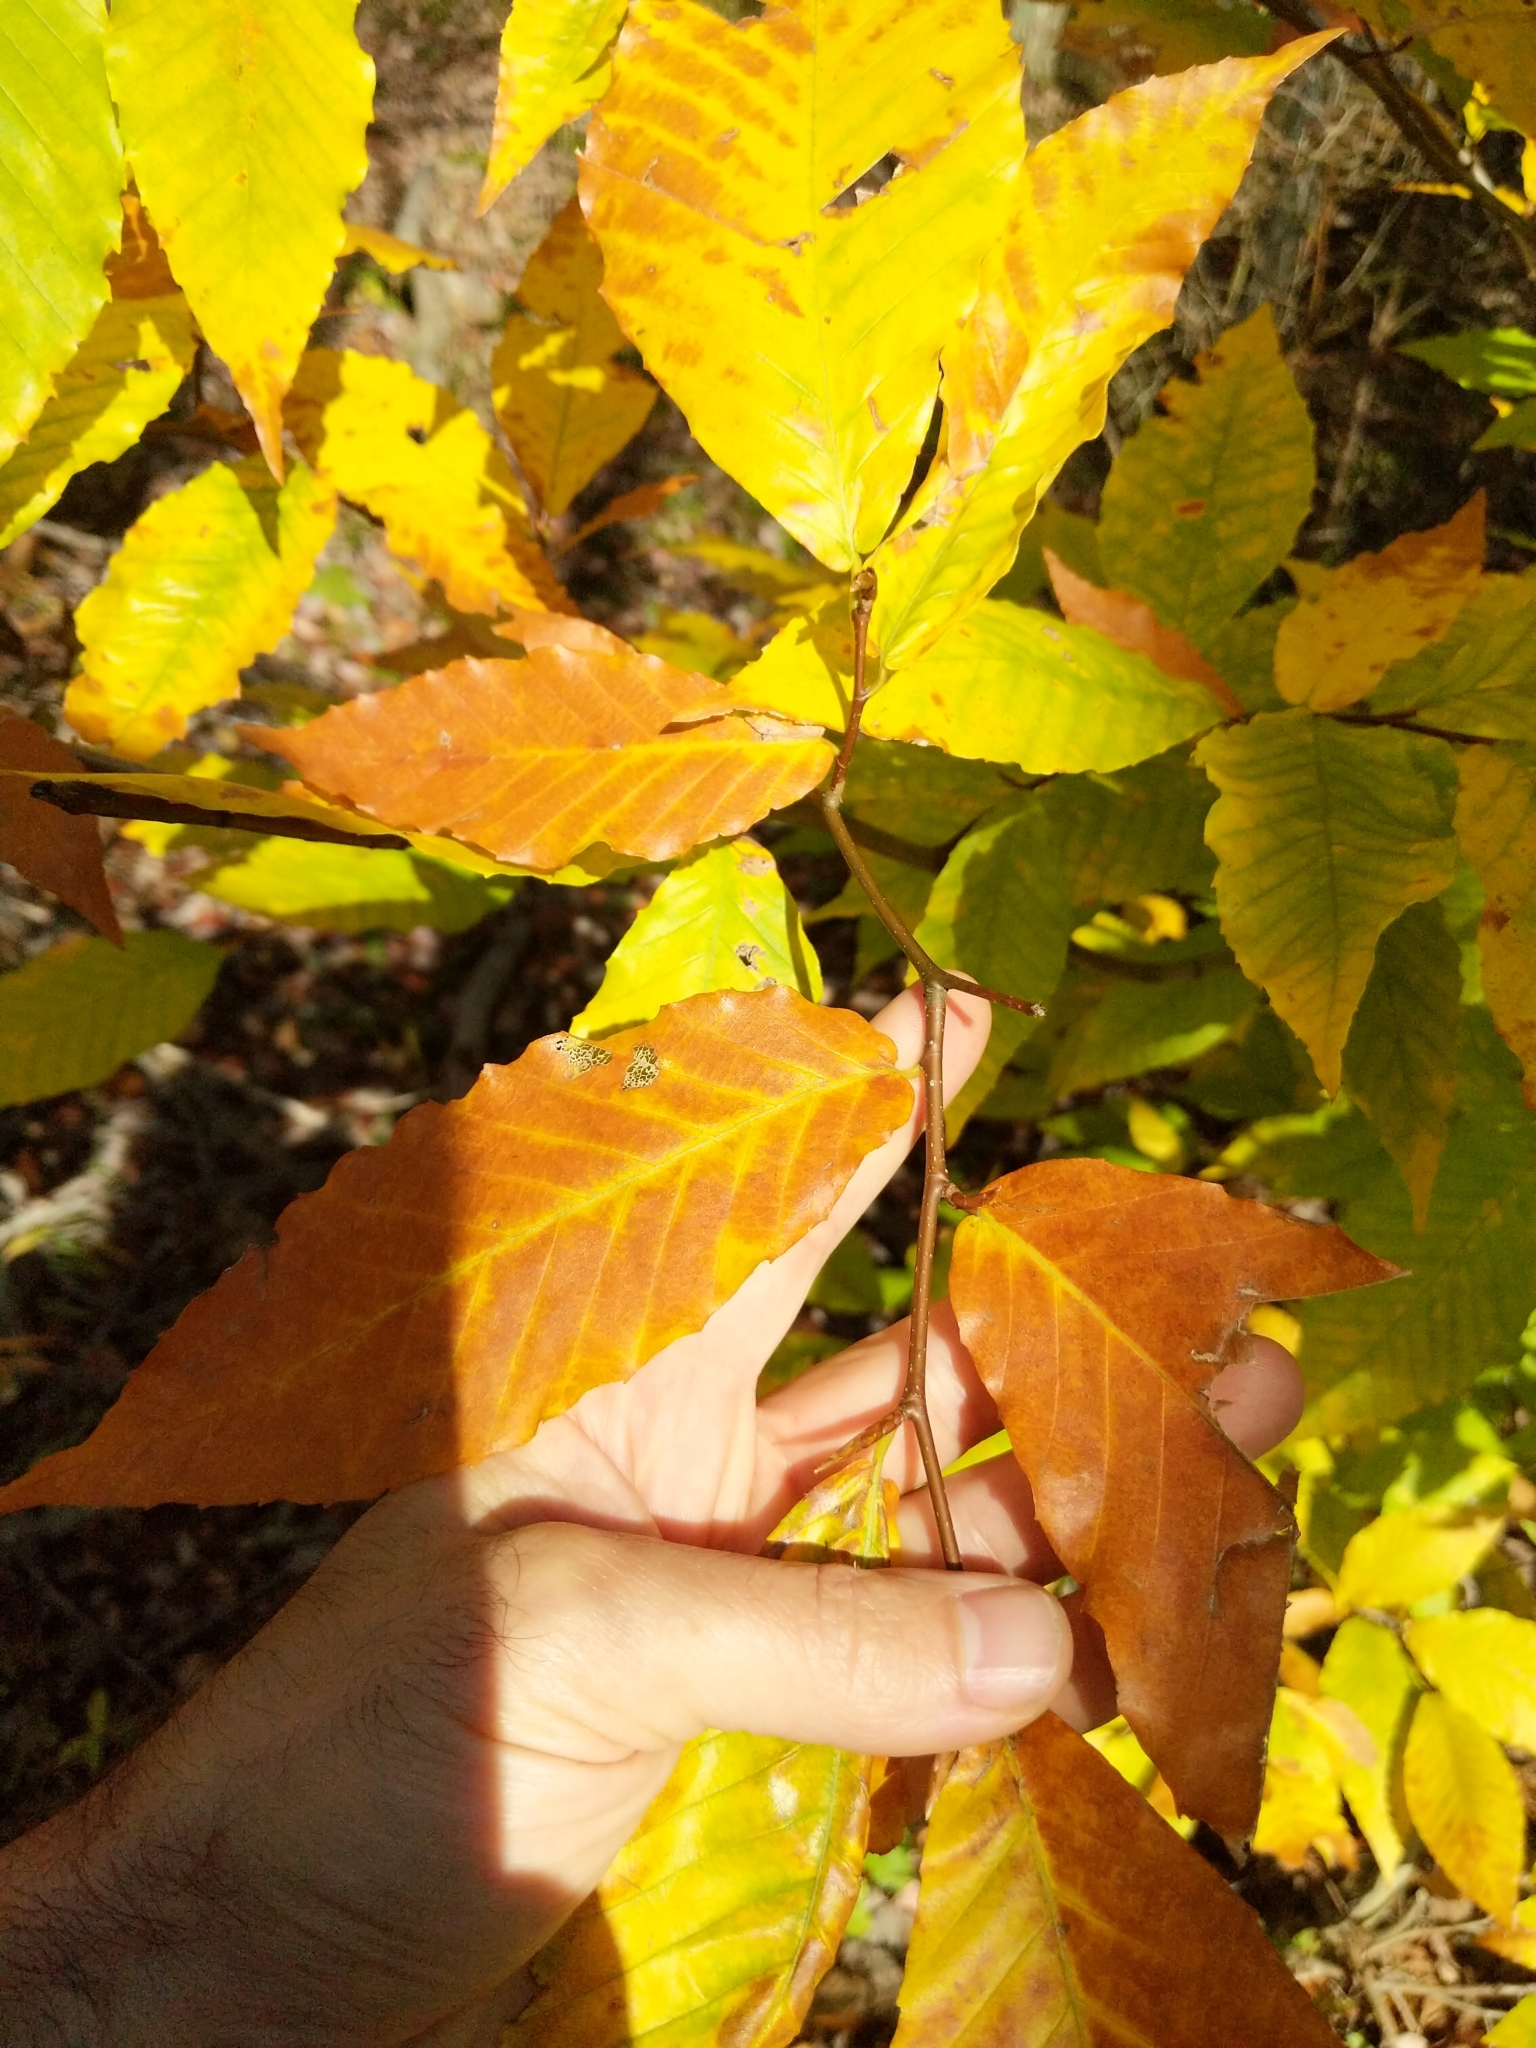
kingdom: Plantae
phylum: Tracheophyta
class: Magnoliopsida
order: Fagales
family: Fagaceae
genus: Fagus
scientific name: Fagus grandifolia
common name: American beech
